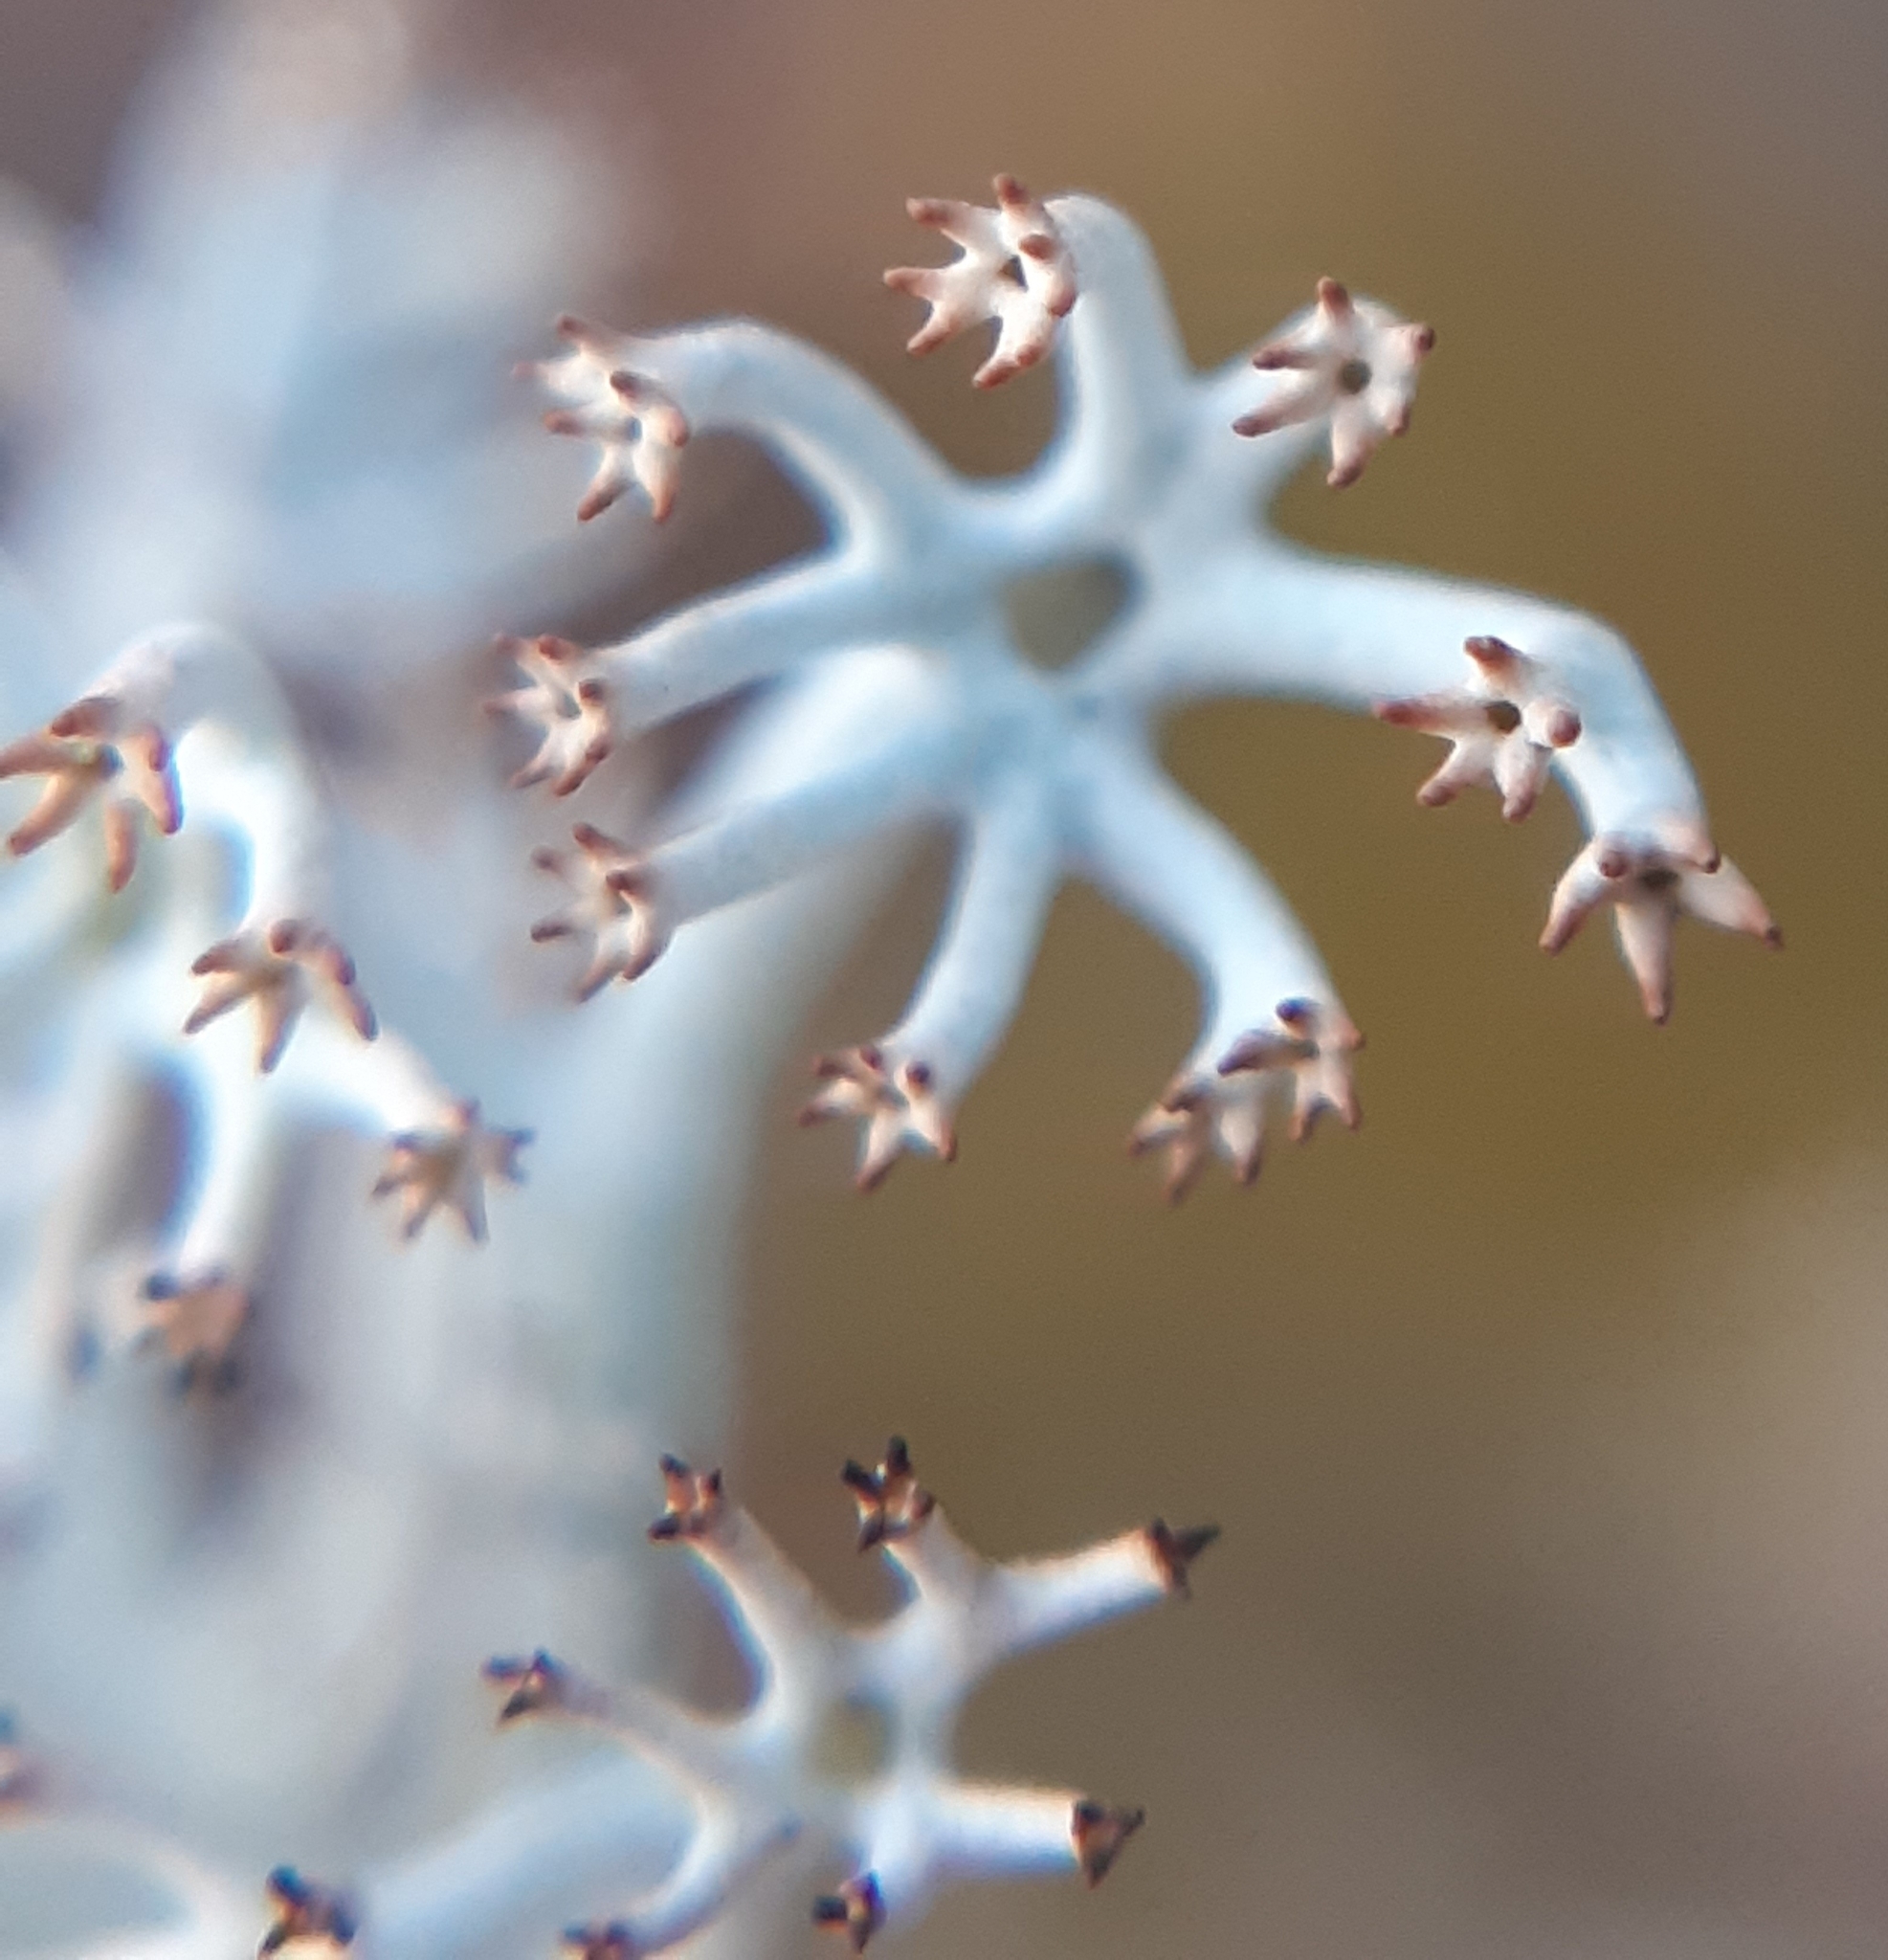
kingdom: Fungi
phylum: Ascomycota
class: Lecanoromycetes
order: Lecanorales
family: Cladoniaceae
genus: Cladonia
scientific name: Cladonia rangiferina
